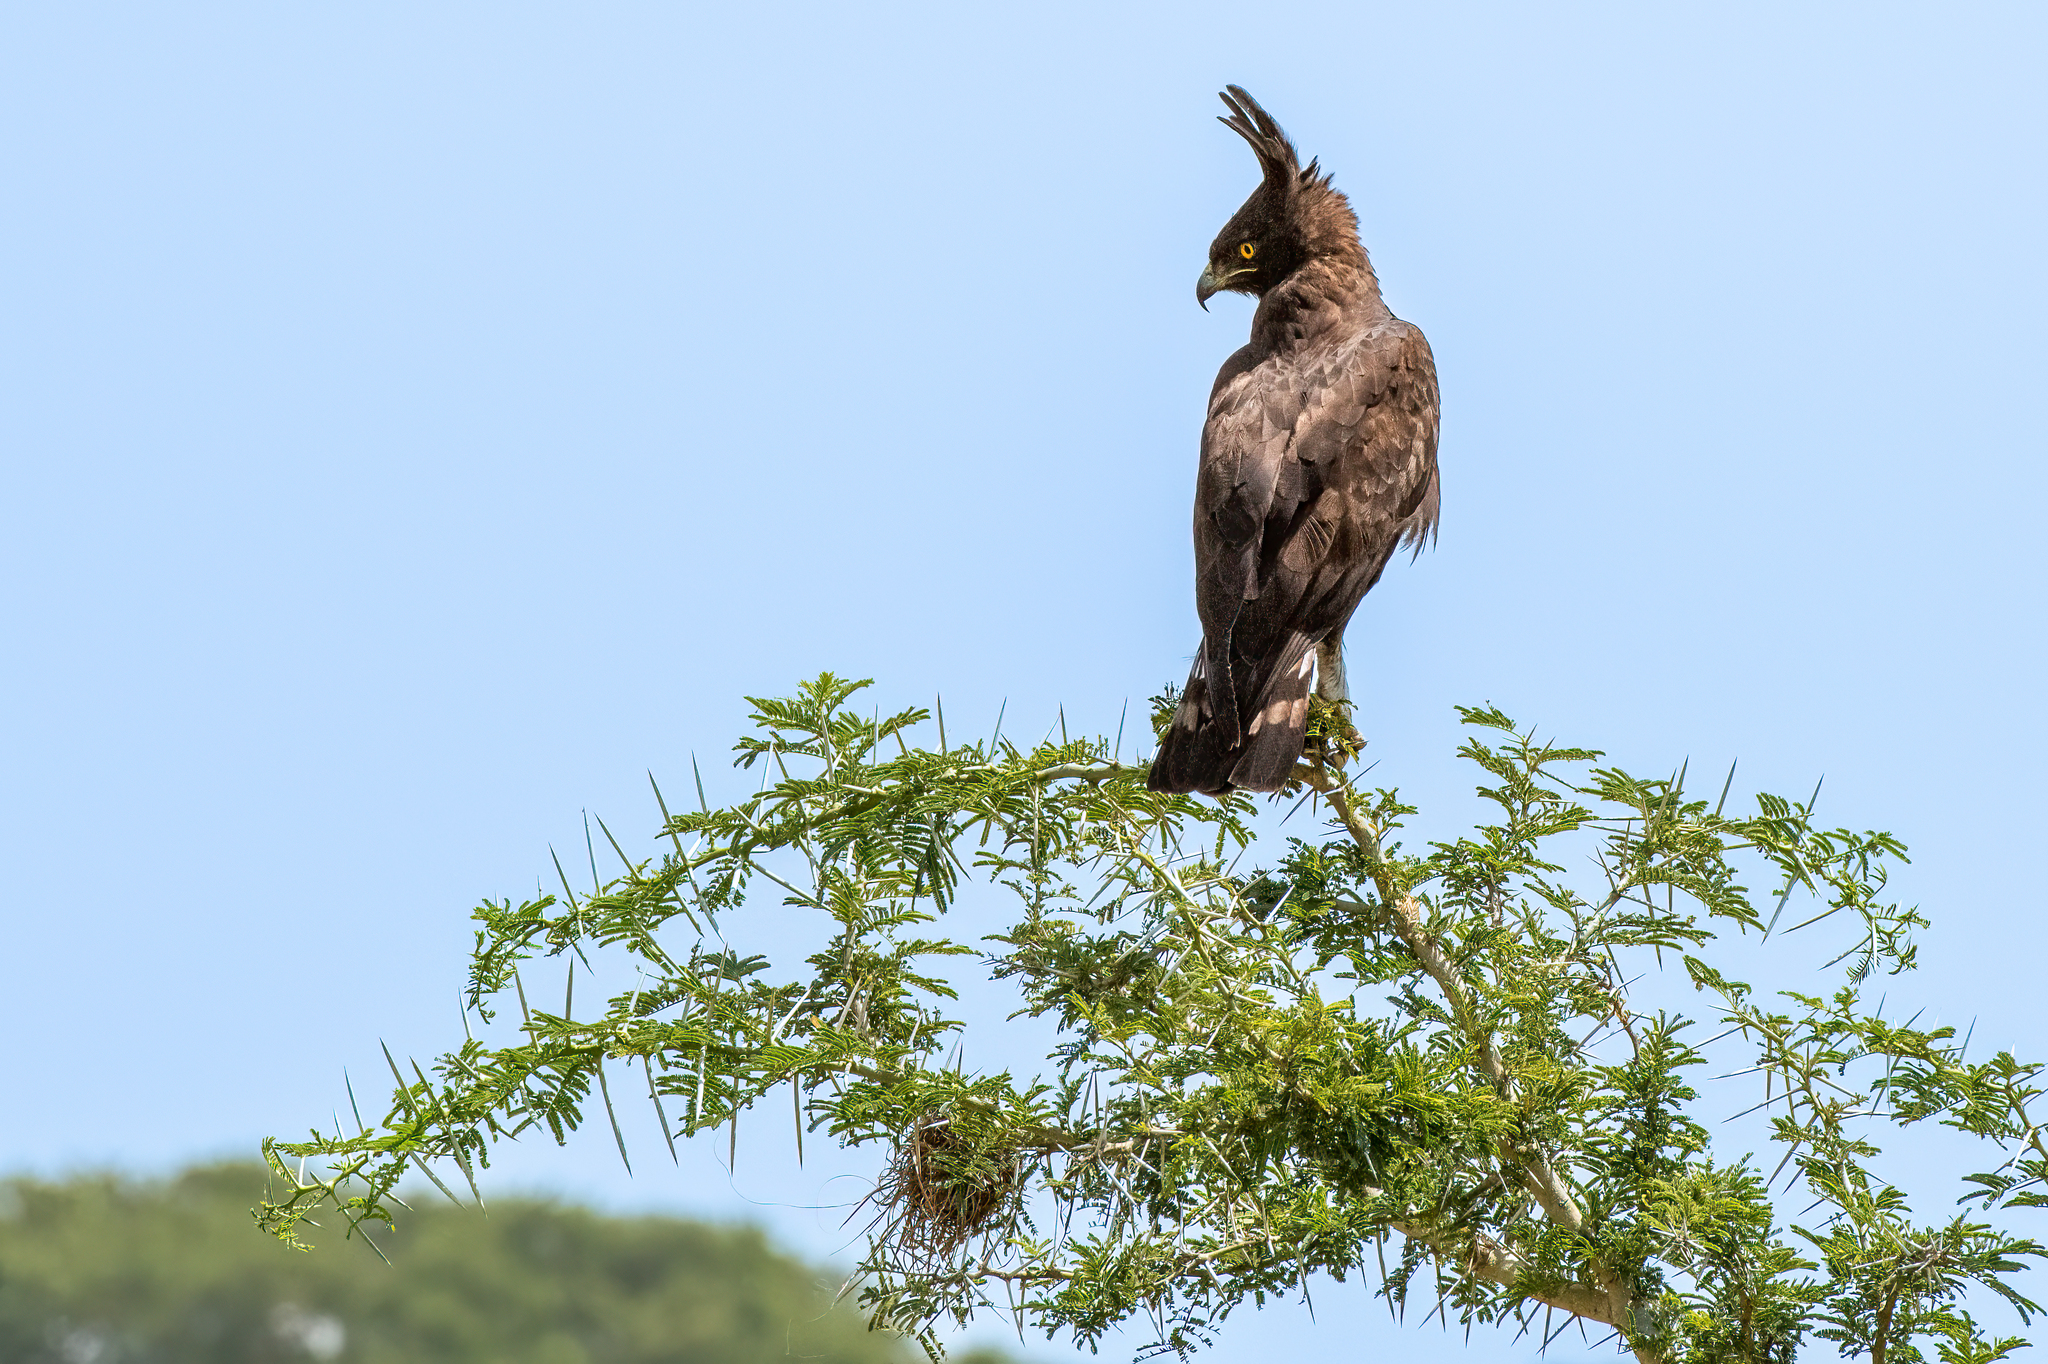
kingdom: Animalia
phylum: Chordata
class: Aves
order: Accipitriformes
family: Accipitridae
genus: Lophaetus
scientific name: Lophaetus occipitalis
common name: Long-crested eagle
